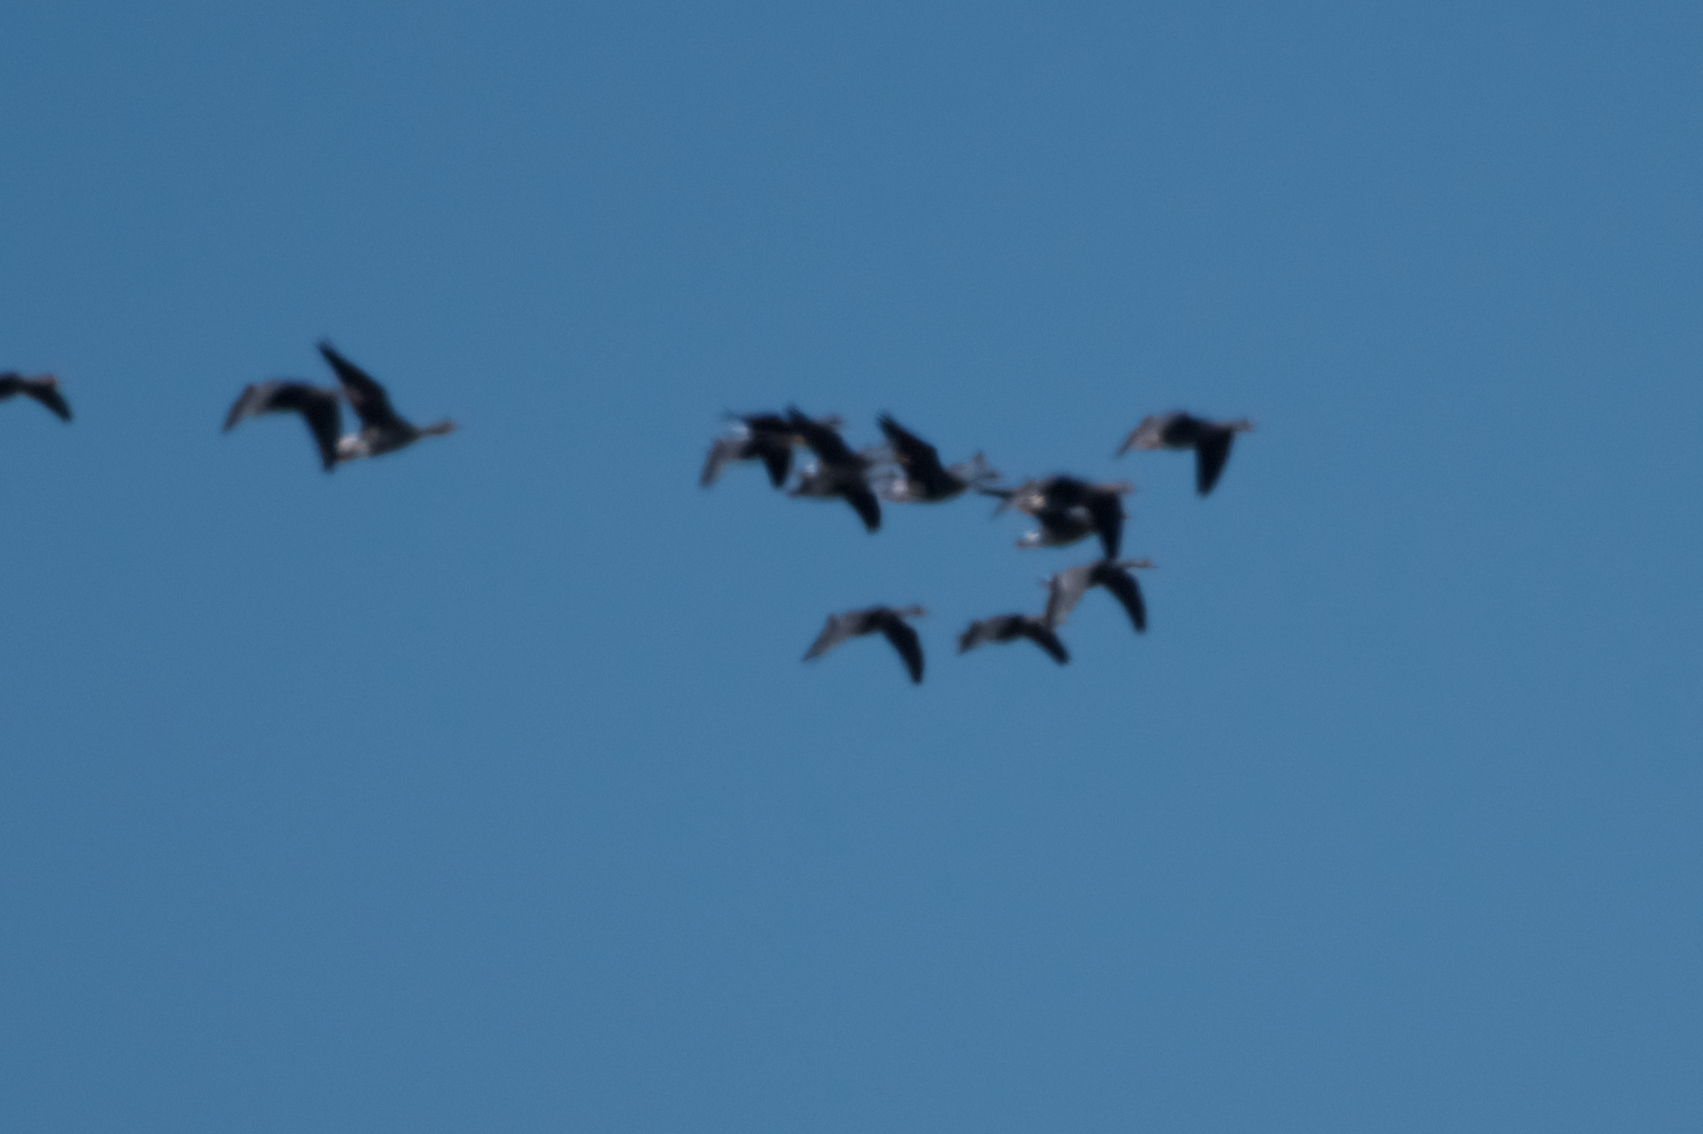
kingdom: Animalia
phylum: Chordata
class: Aves
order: Anseriformes
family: Anatidae
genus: Anser
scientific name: Anser albifrons
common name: Greater white-fronted goose
